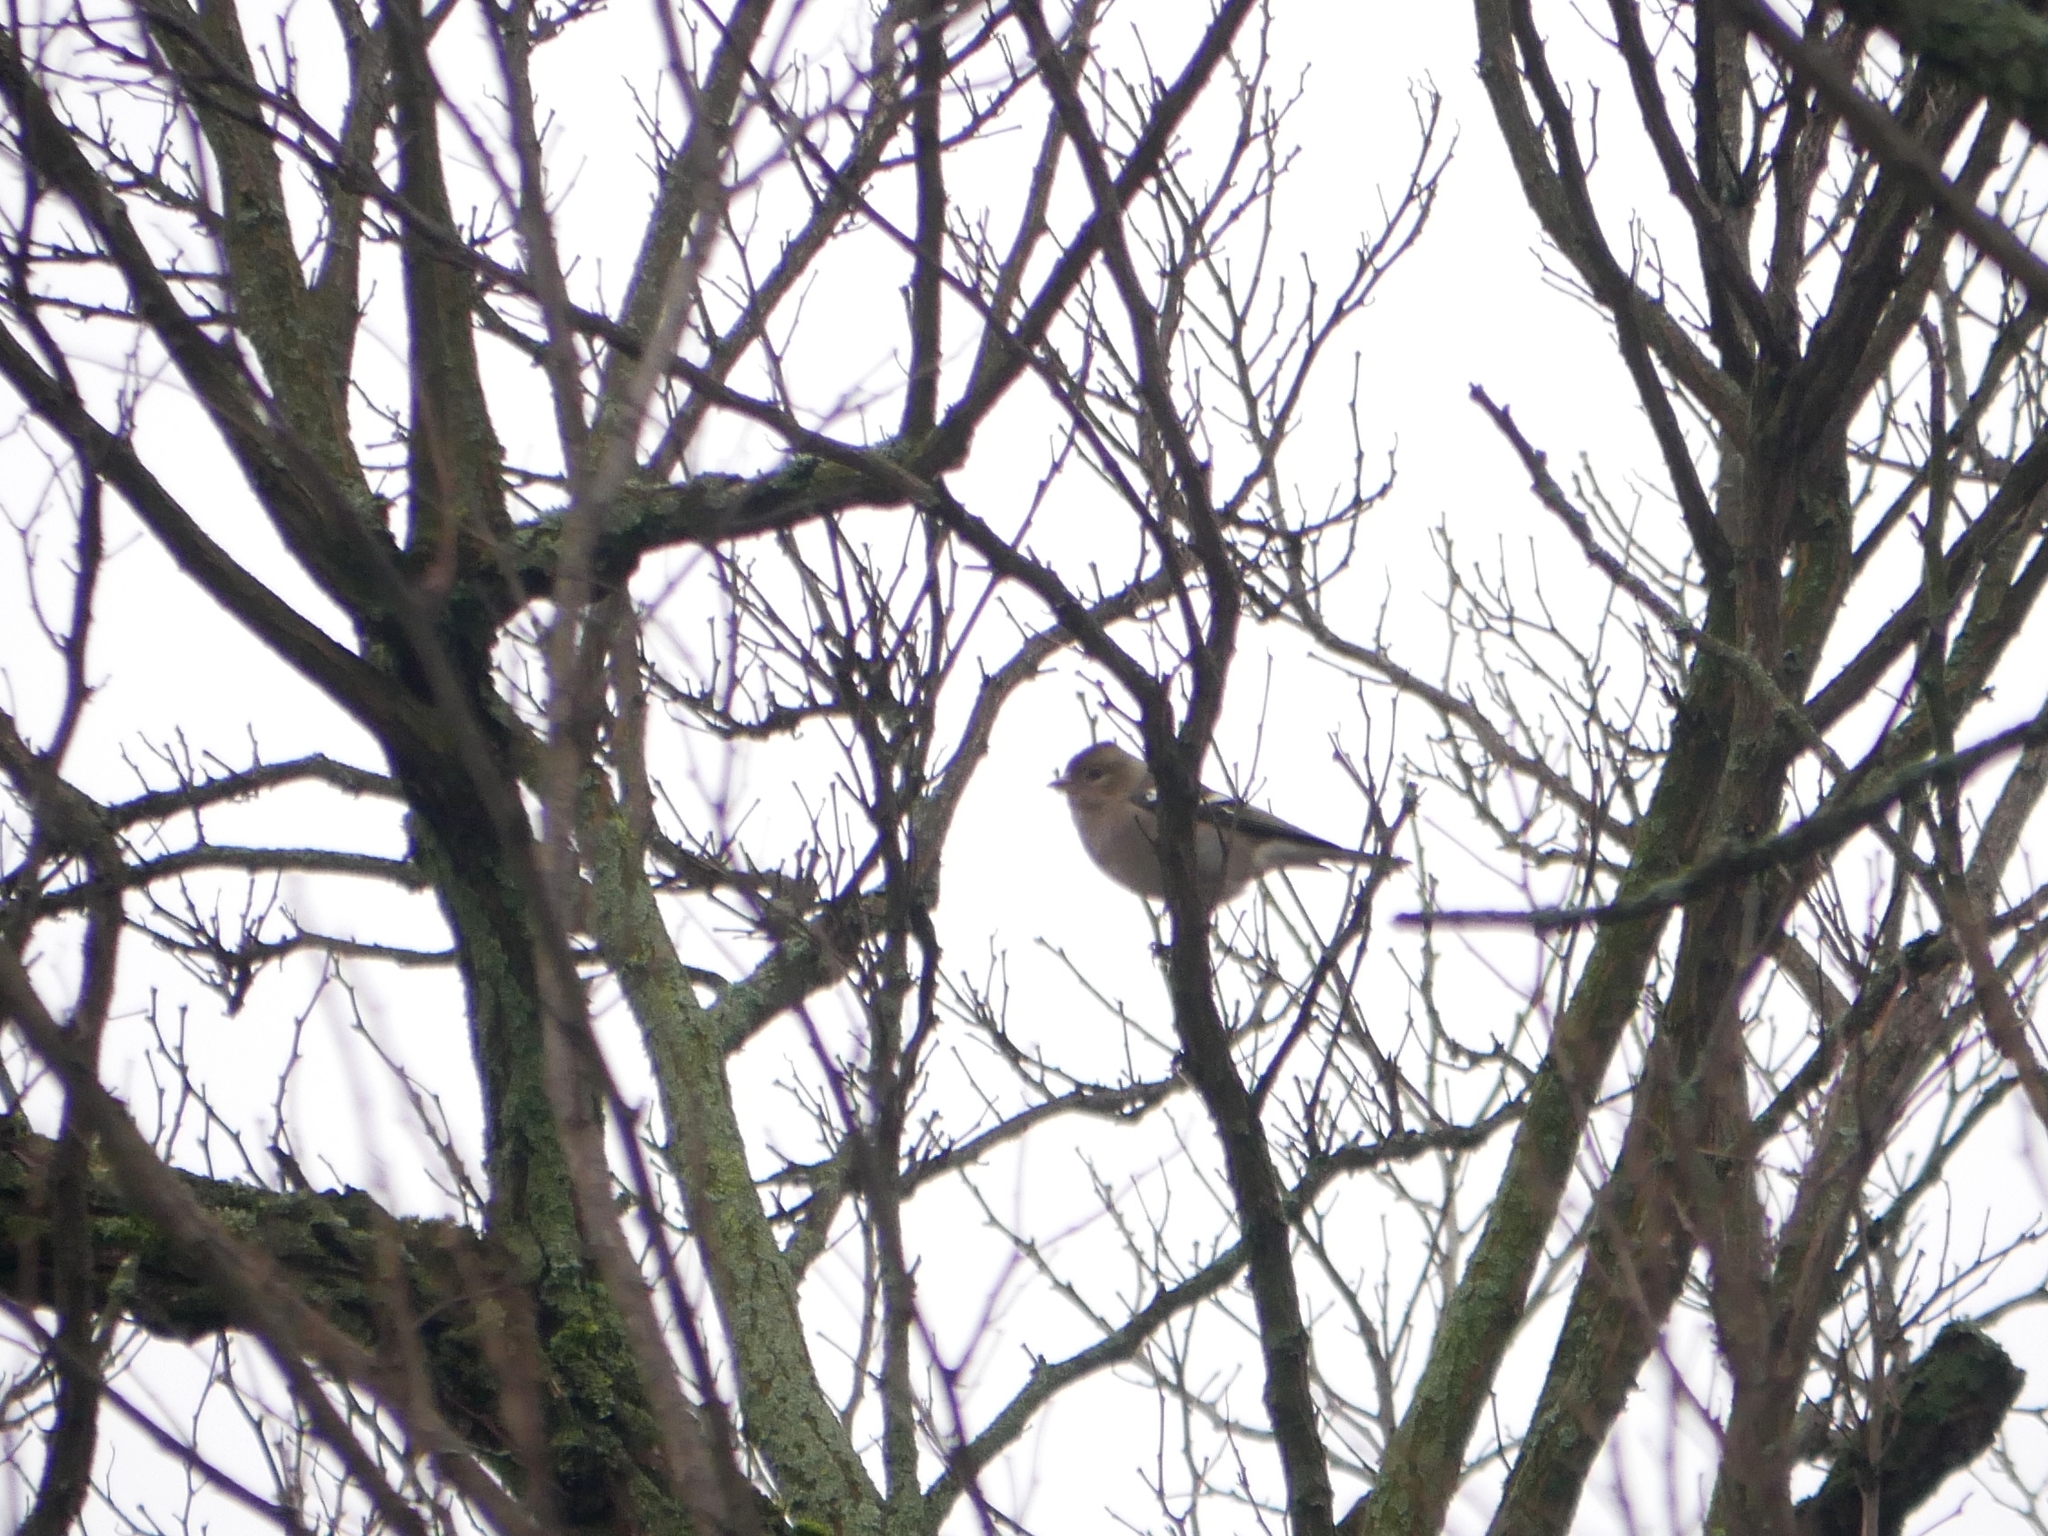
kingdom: Animalia
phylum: Chordata
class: Aves
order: Passeriformes
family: Fringillidae
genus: Fringilla
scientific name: Fringilla coelebs
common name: Common chaffinch
